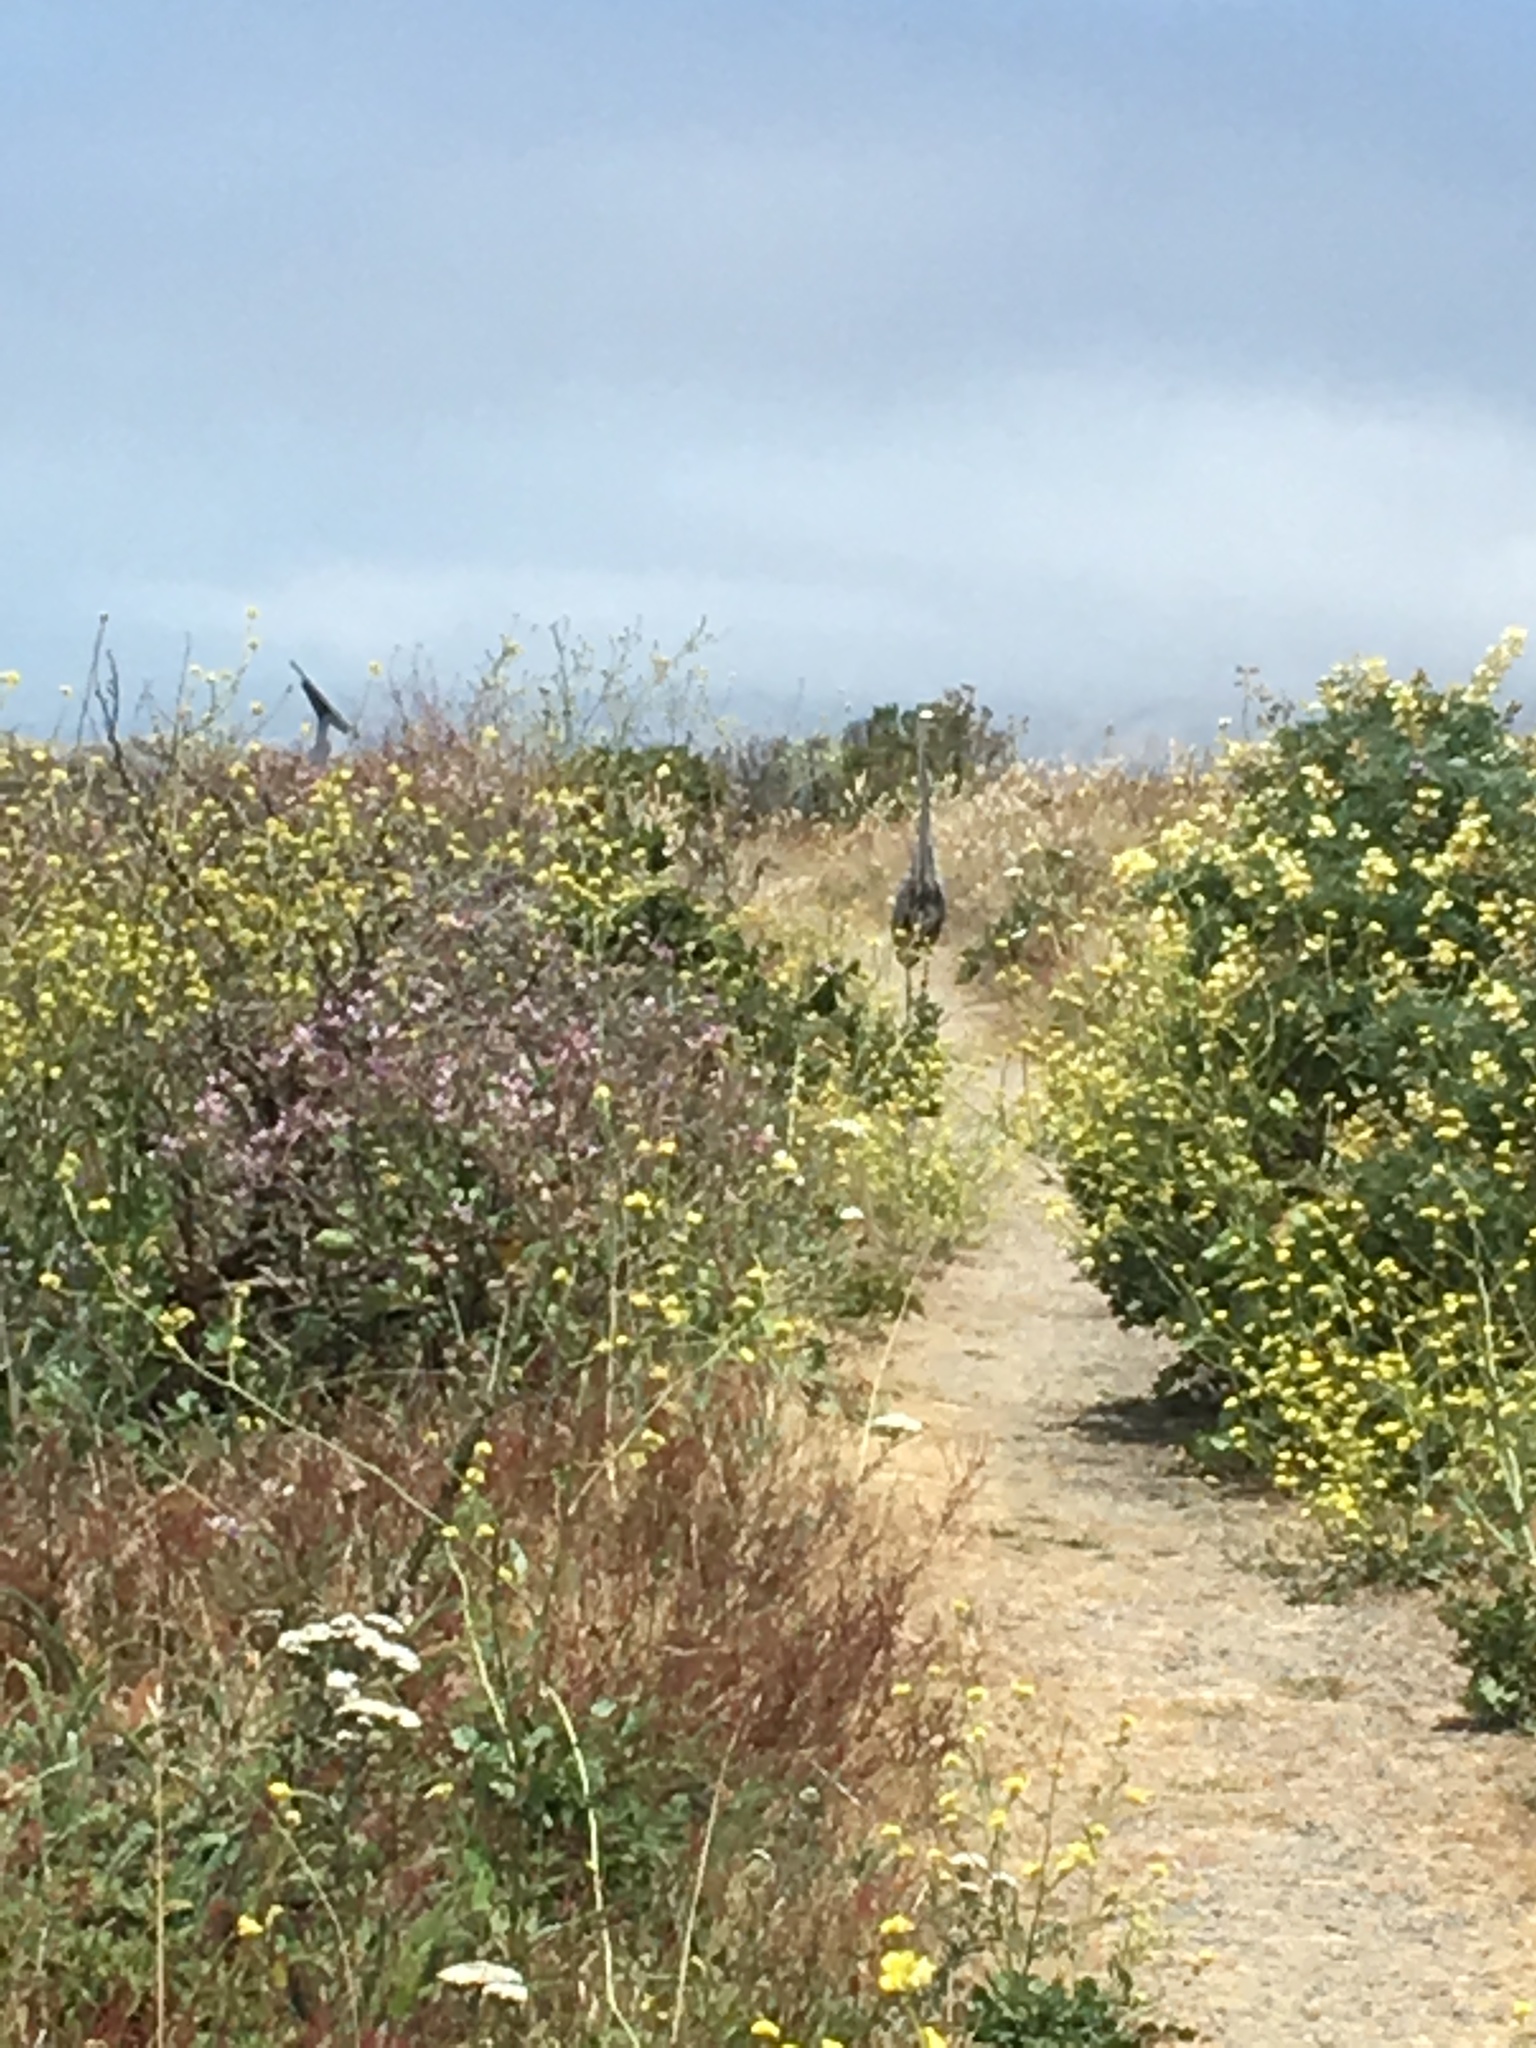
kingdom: Animalia
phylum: Chordata
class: Aves
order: Pelecaniformes
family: Ardeidae
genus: Ardea
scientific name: Ardea herodias
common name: Great blue heron
